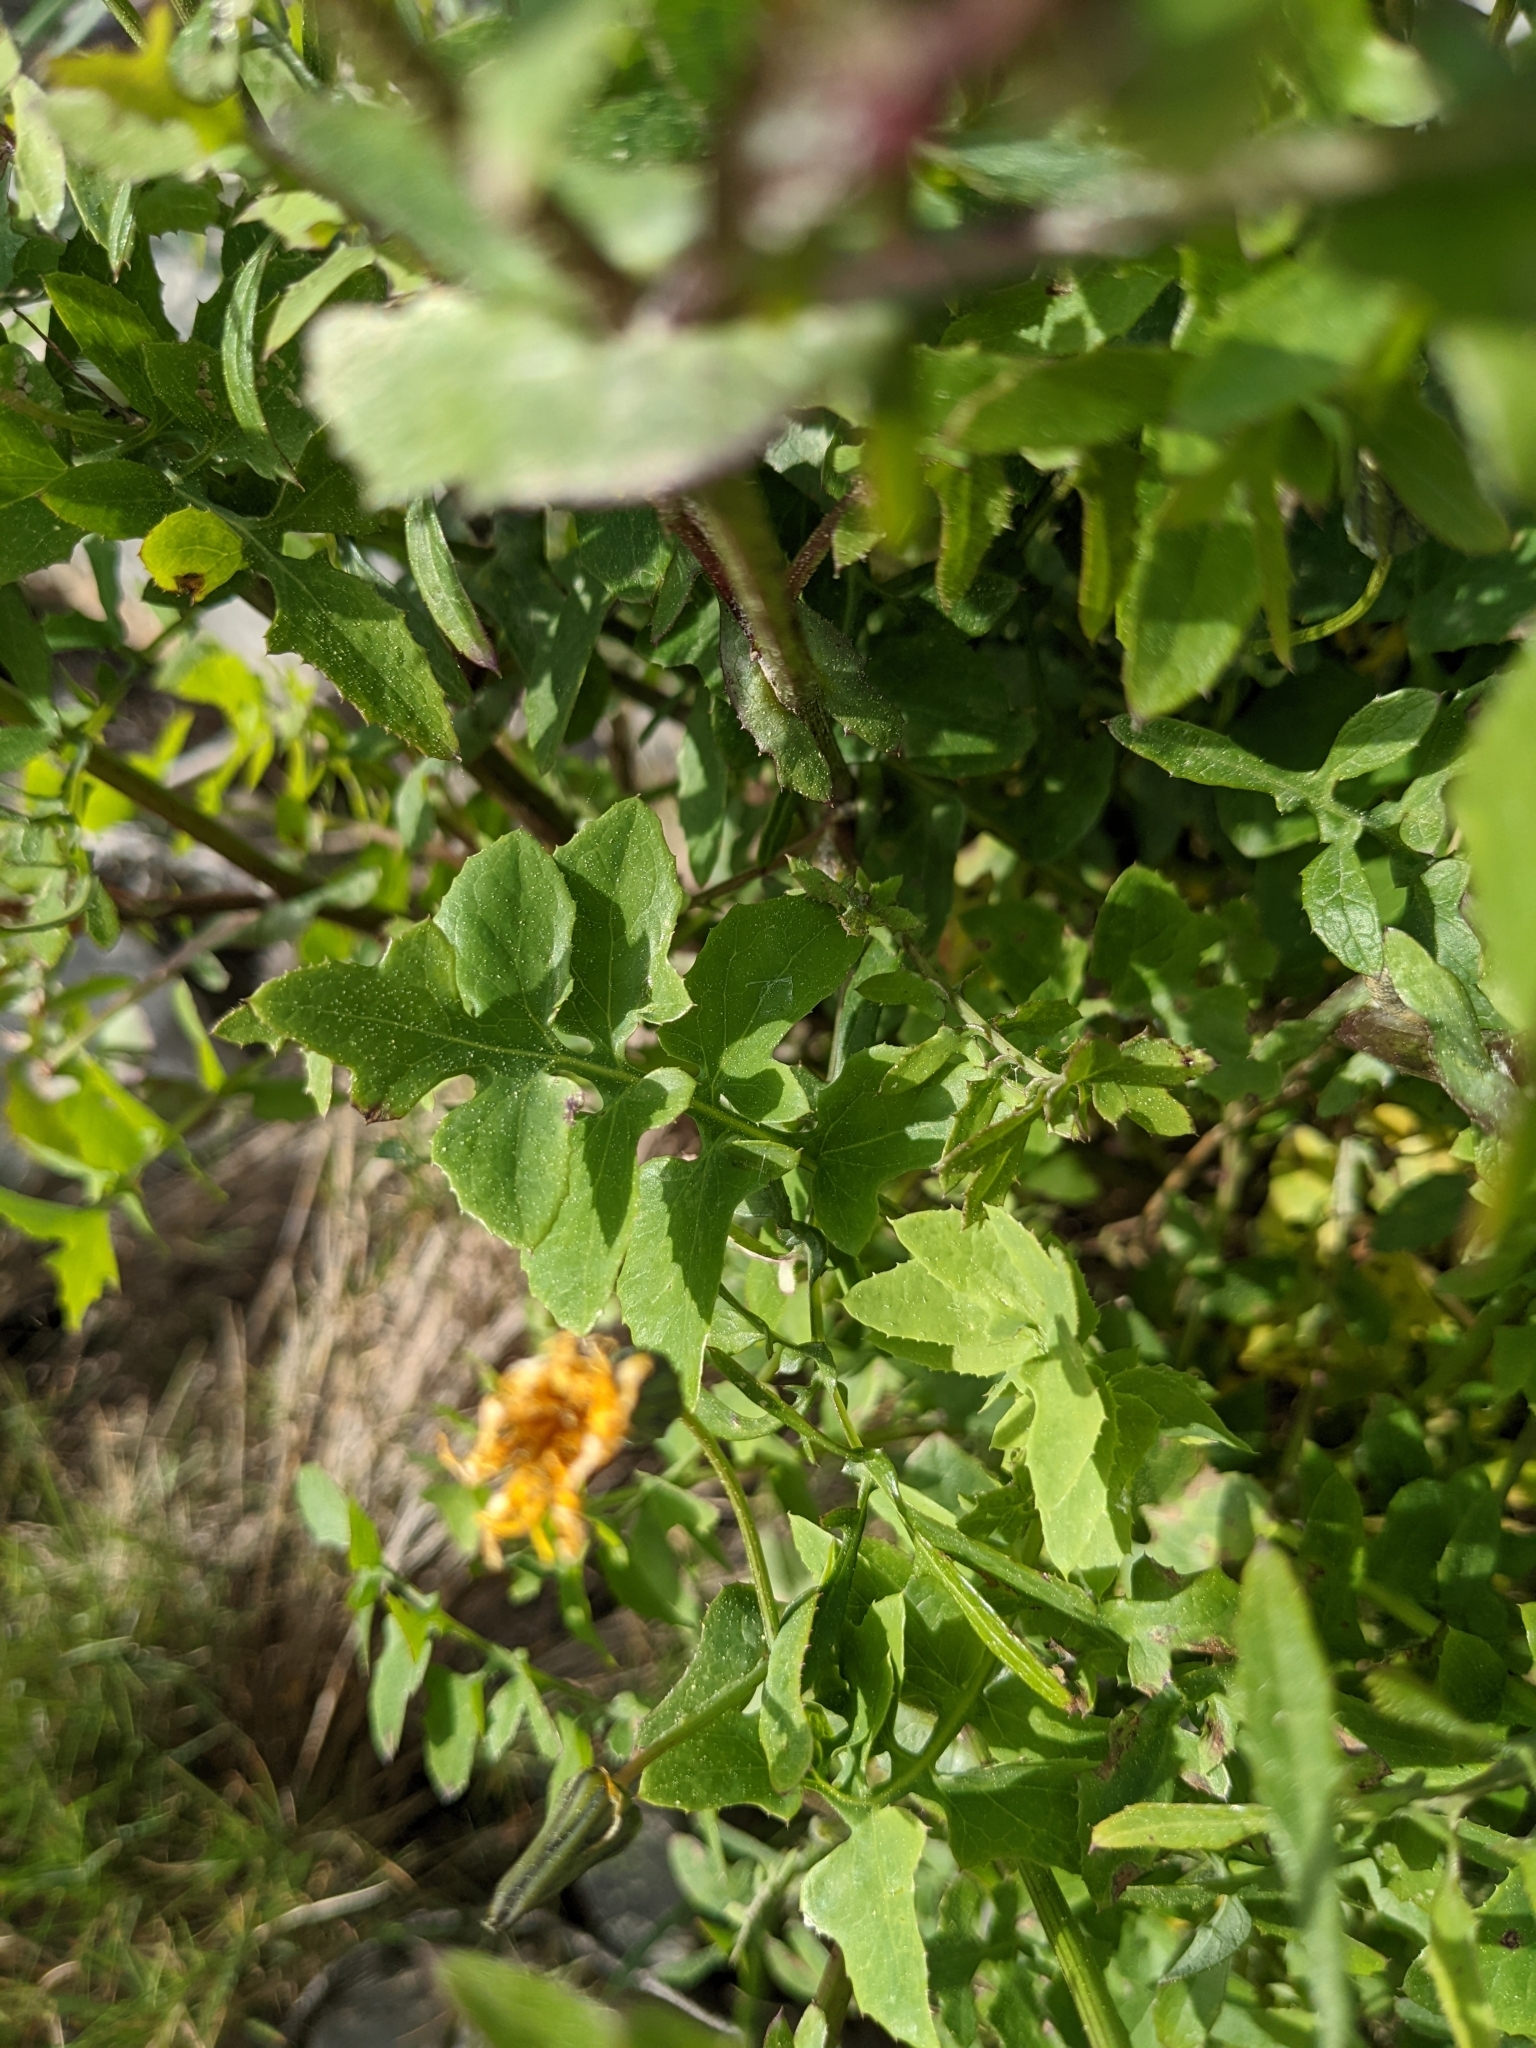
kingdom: Plantae
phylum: Tracheophyta
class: Magnoliopsida
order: Asterales
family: Asteraceae
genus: Sonchus
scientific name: Sonchus tenerrimus
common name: Clammy sowthistle
